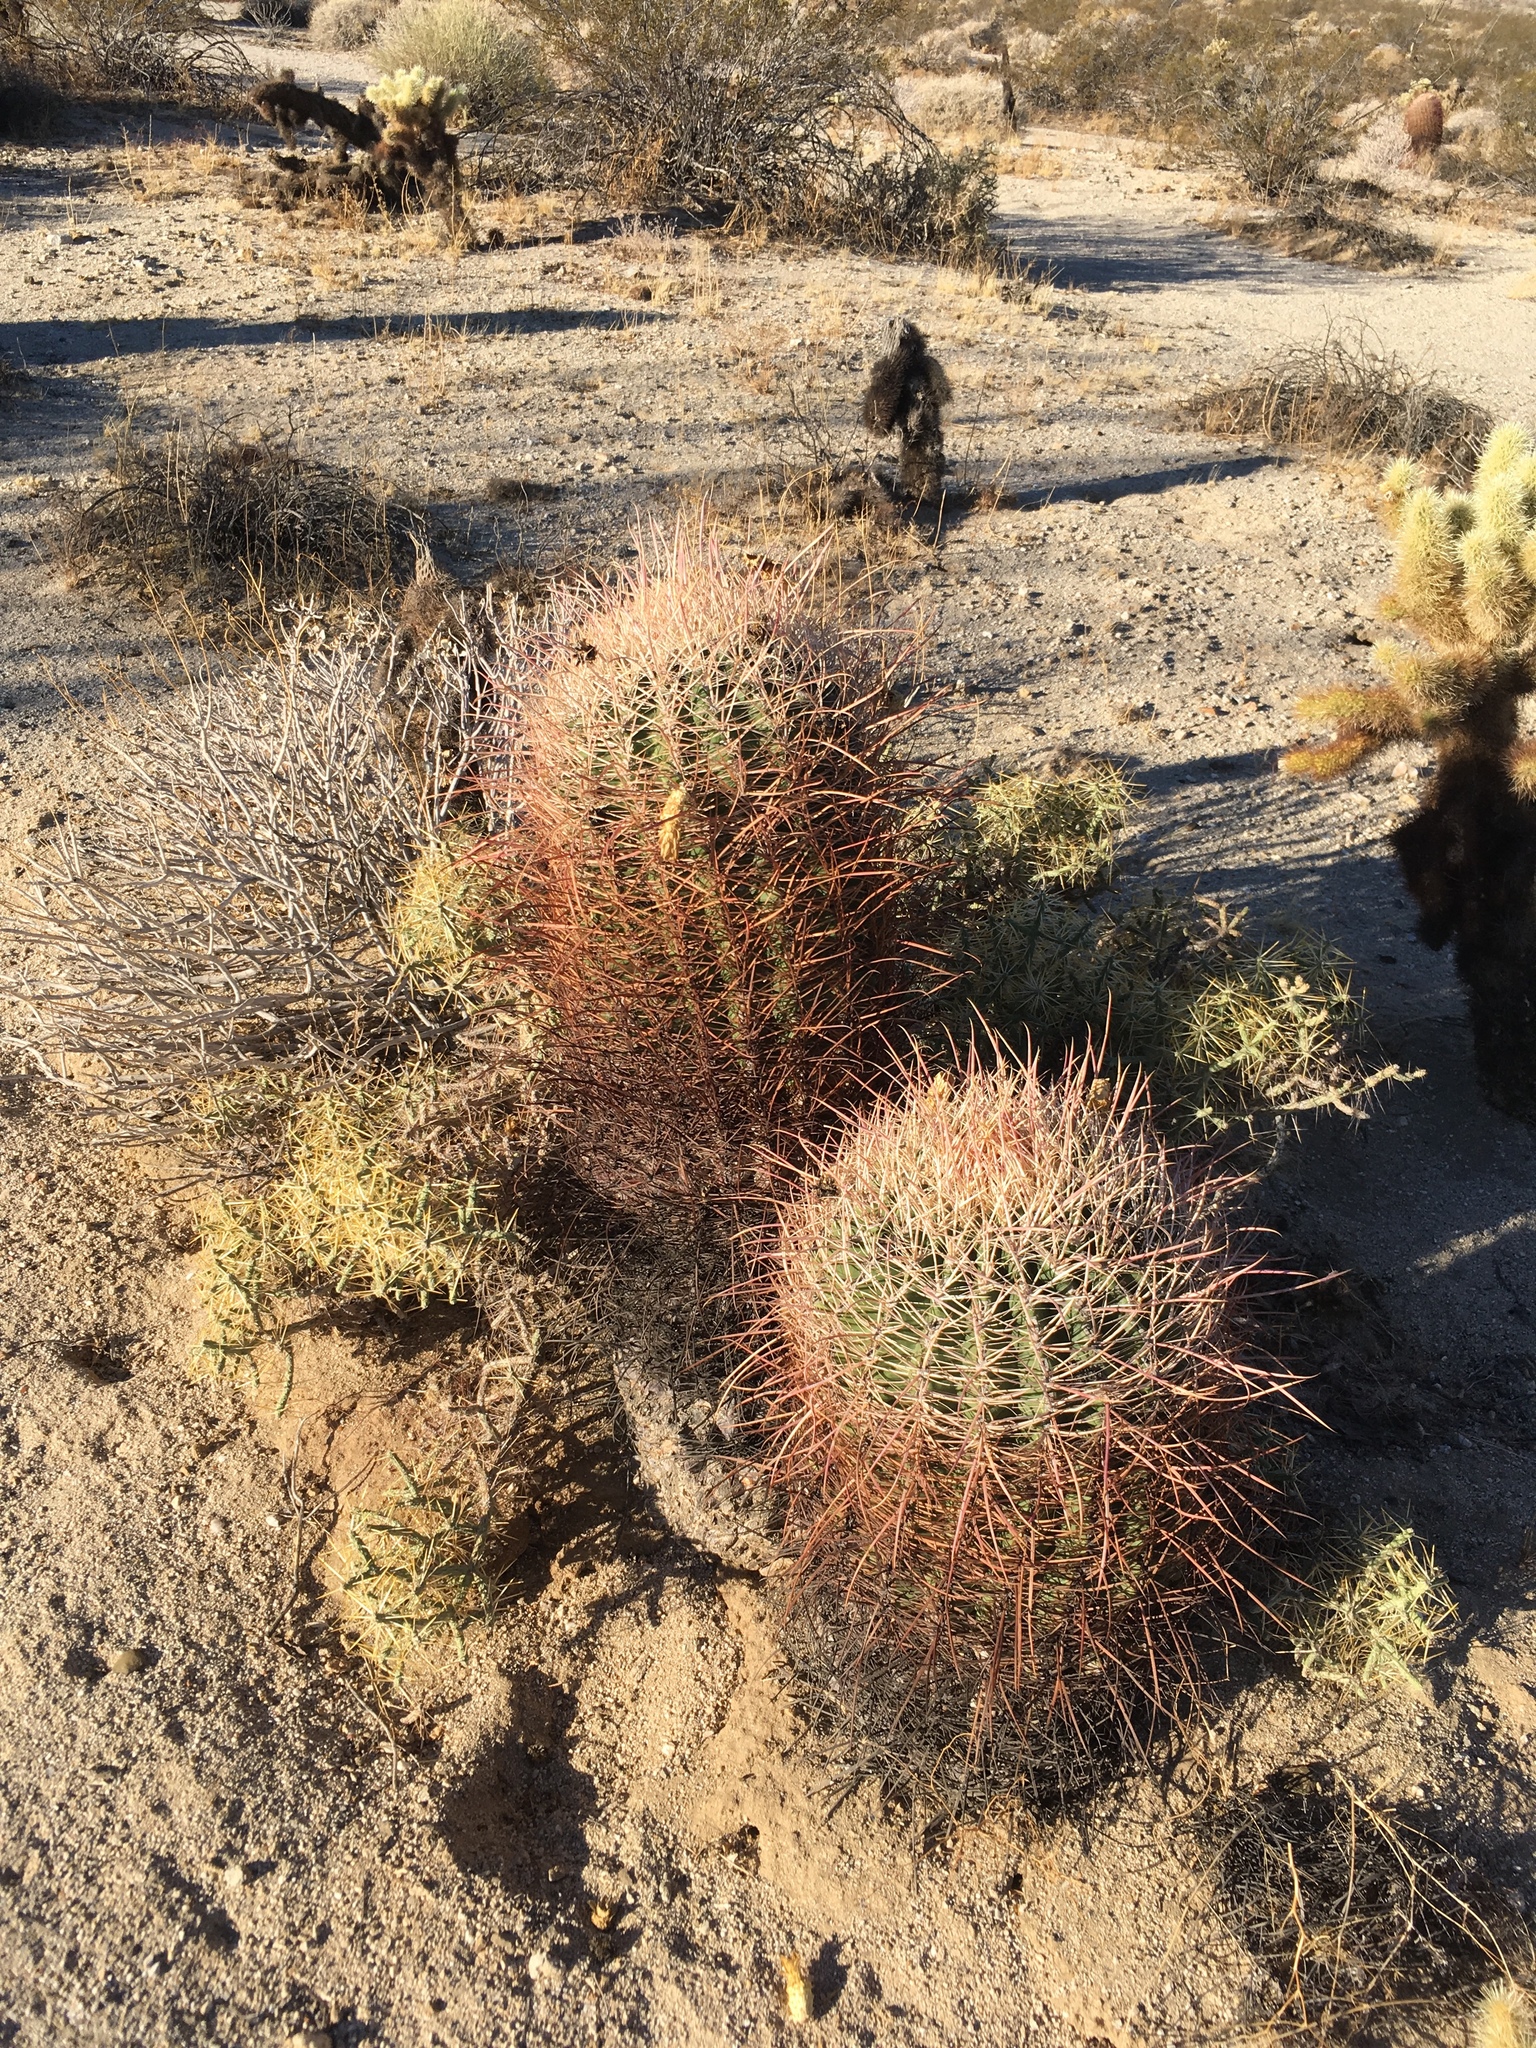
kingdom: Plantae
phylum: Tracheophyta
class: Magnoliopsida
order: Caryophyllales
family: Cactaceae
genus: Ferocactus
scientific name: Ferocactus cylindraceus
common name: California barrel cactus
